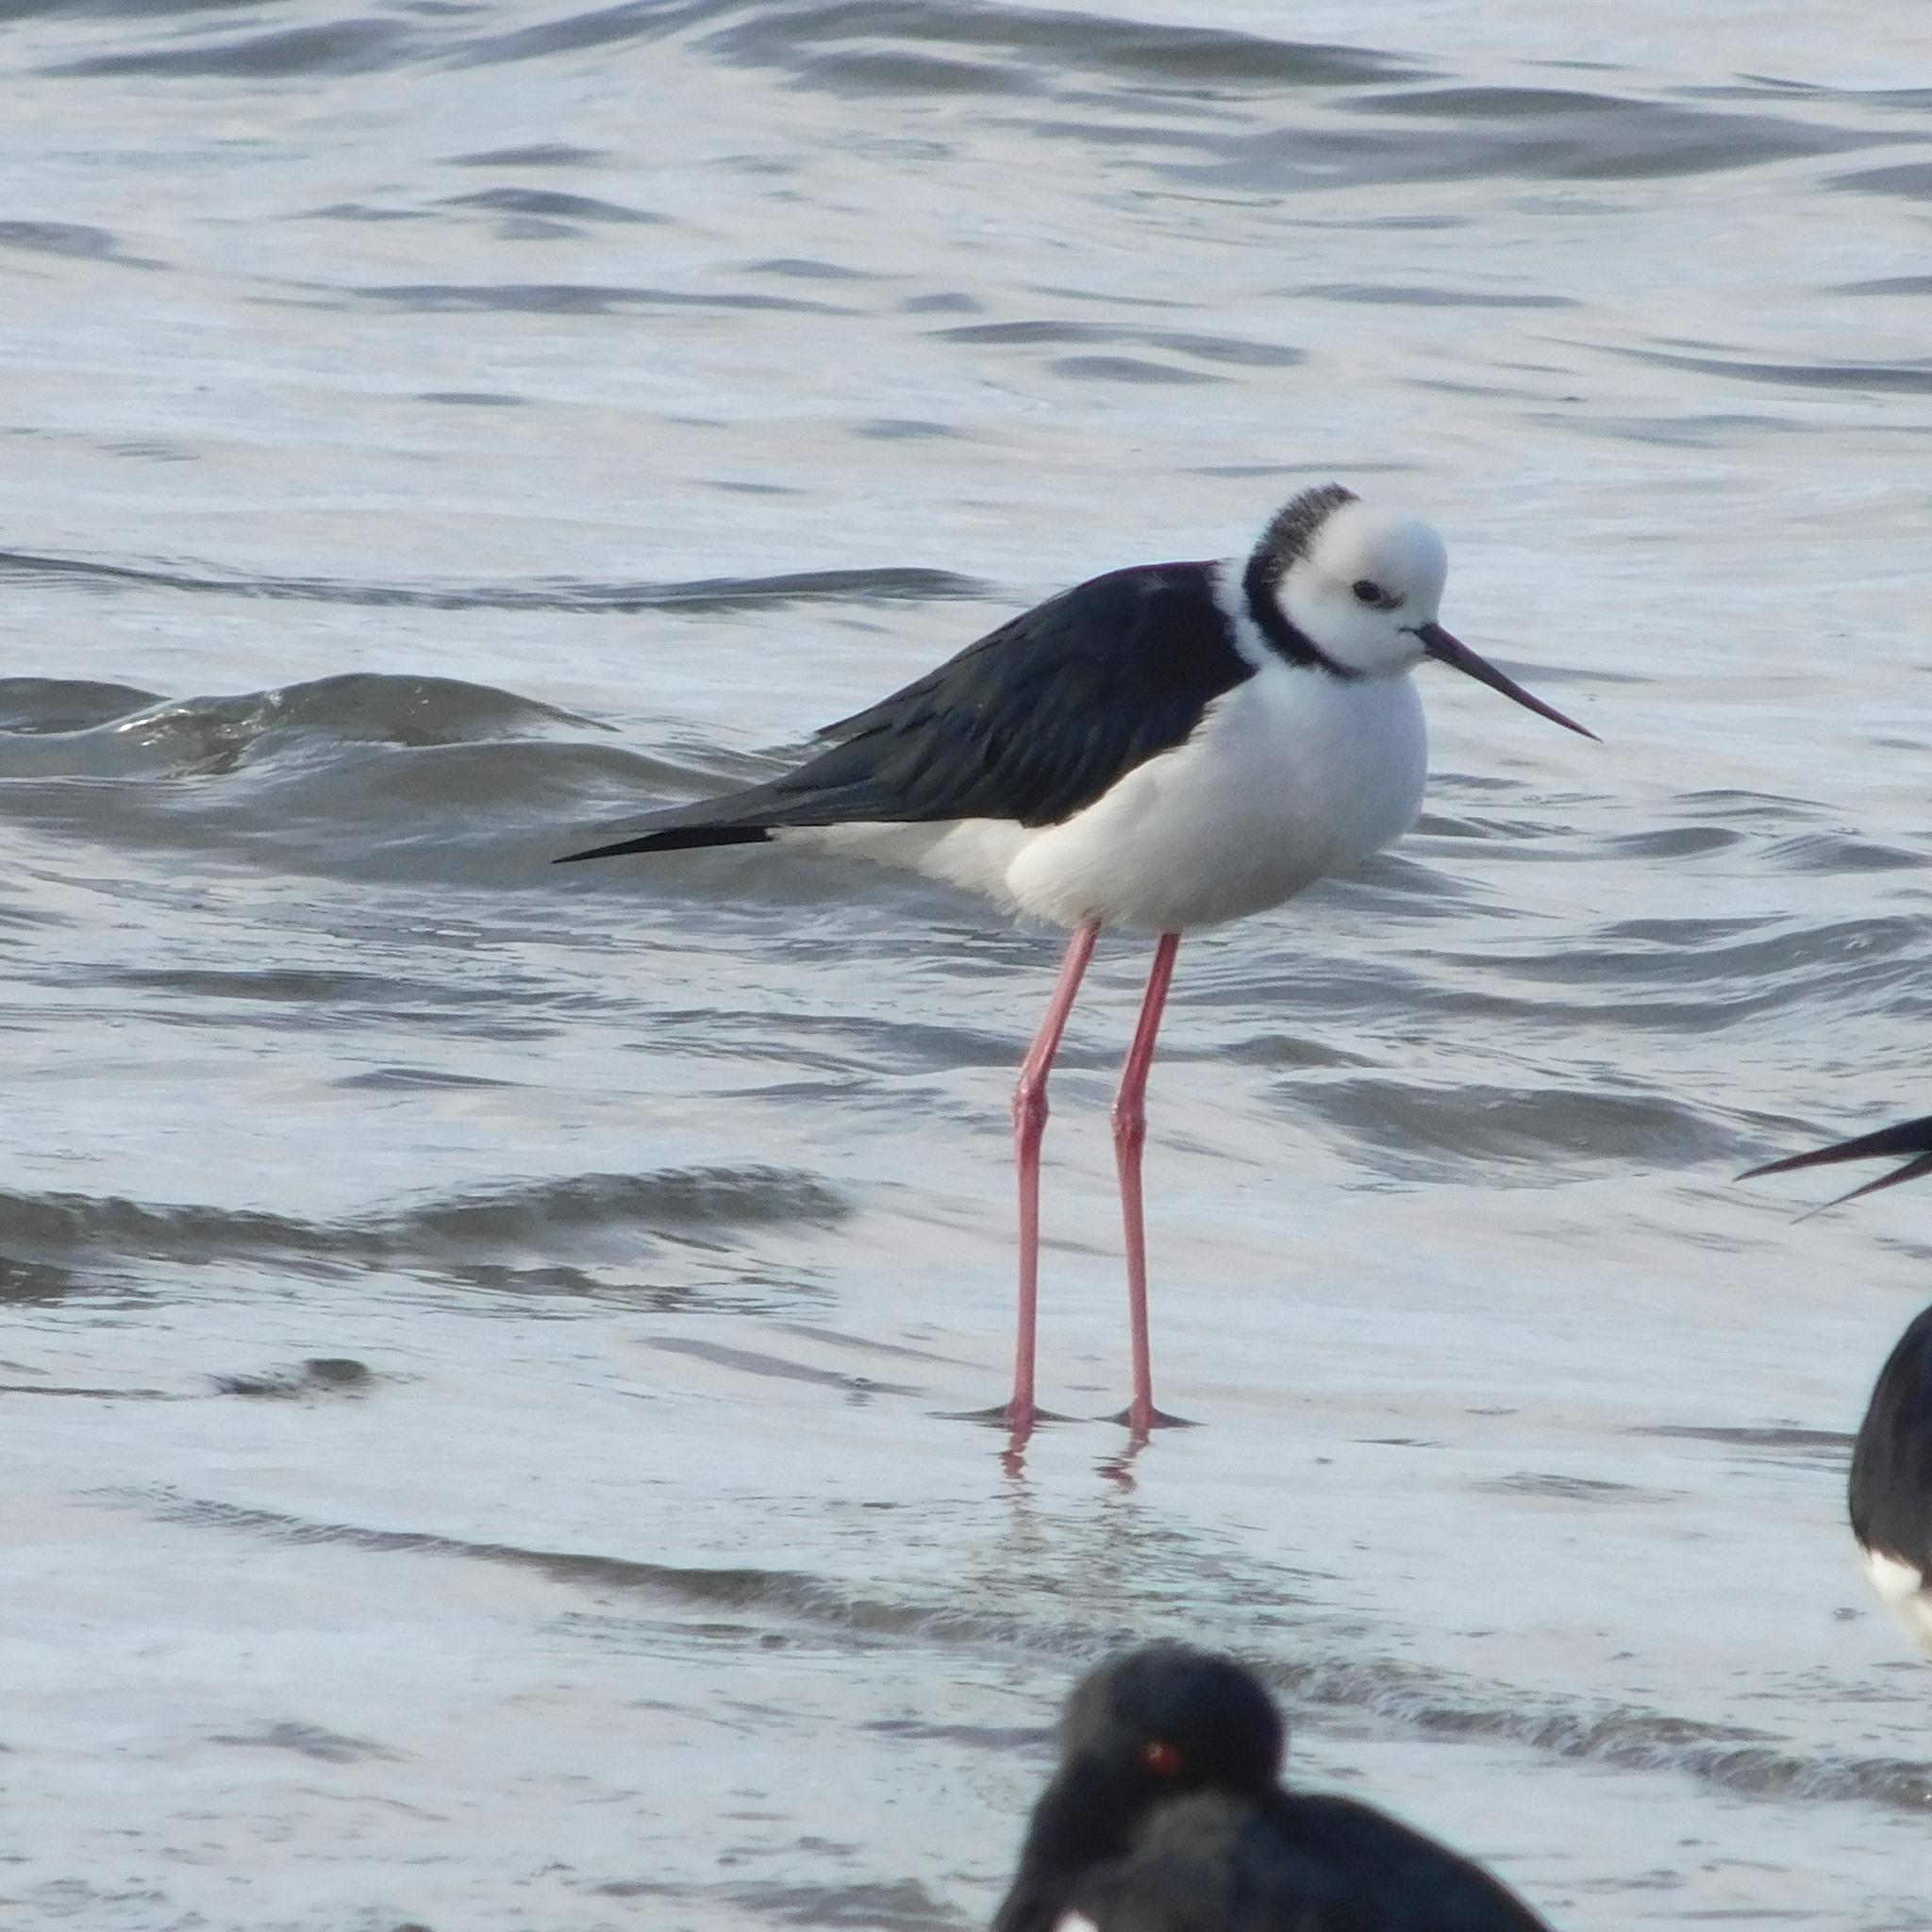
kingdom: Animalia
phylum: Chordata
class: Aves
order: Charadriiformes
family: Recurvirostridae
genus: Himantopus
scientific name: Himantopus leucocephalus
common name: White-headed stilt
